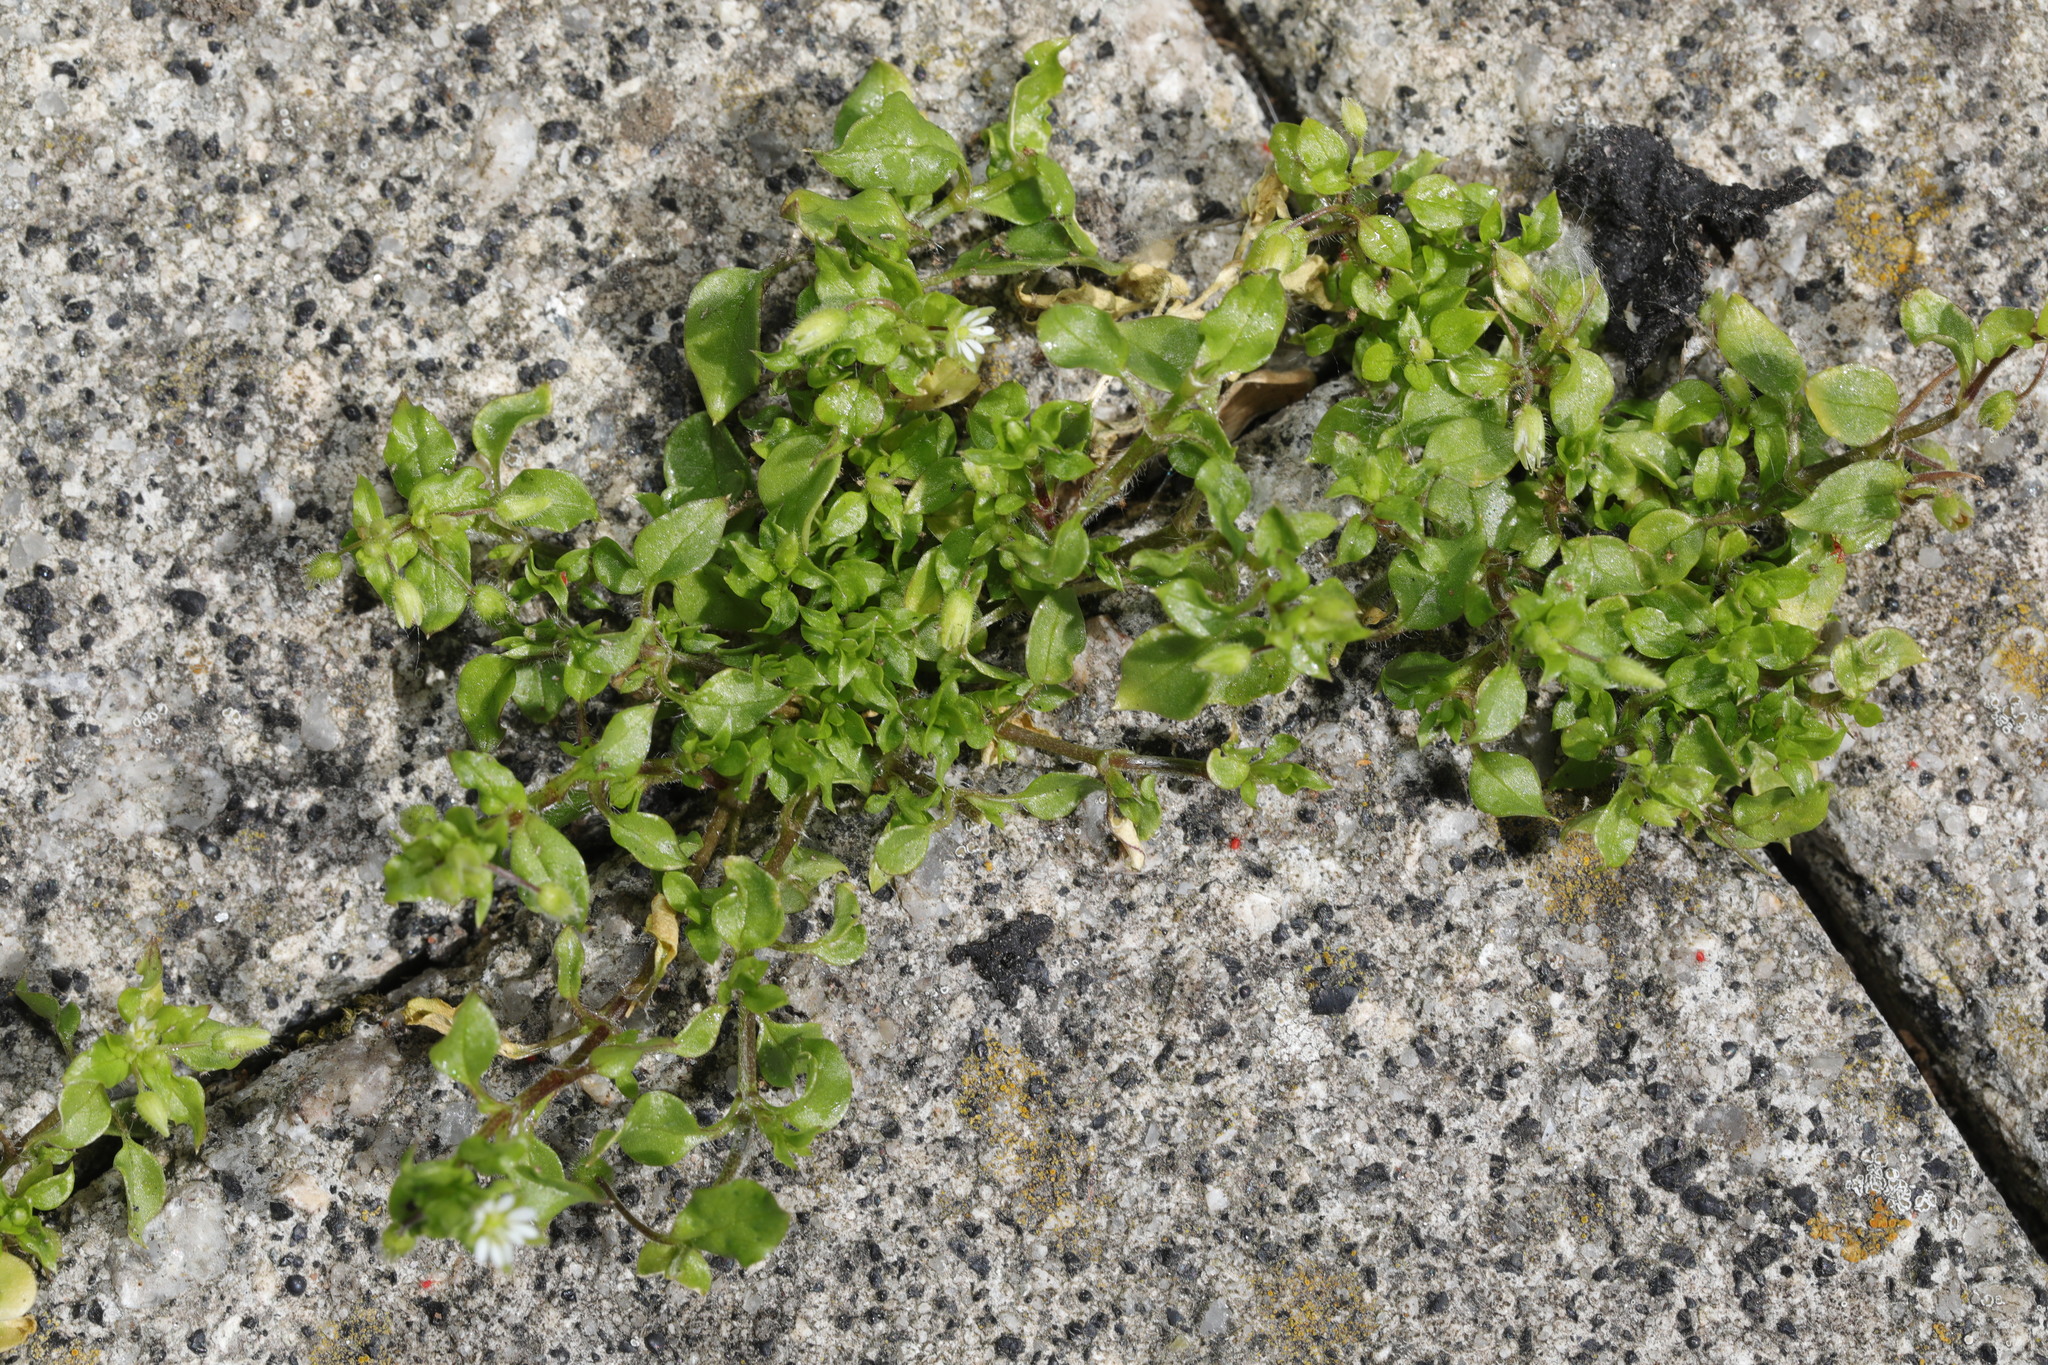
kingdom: Plantae
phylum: Tracheophyta
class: Magnoliopsida
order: Caryophyllales
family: Caryophyllaceae
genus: Stellaria
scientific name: Stellaria media
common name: Common chickweed
